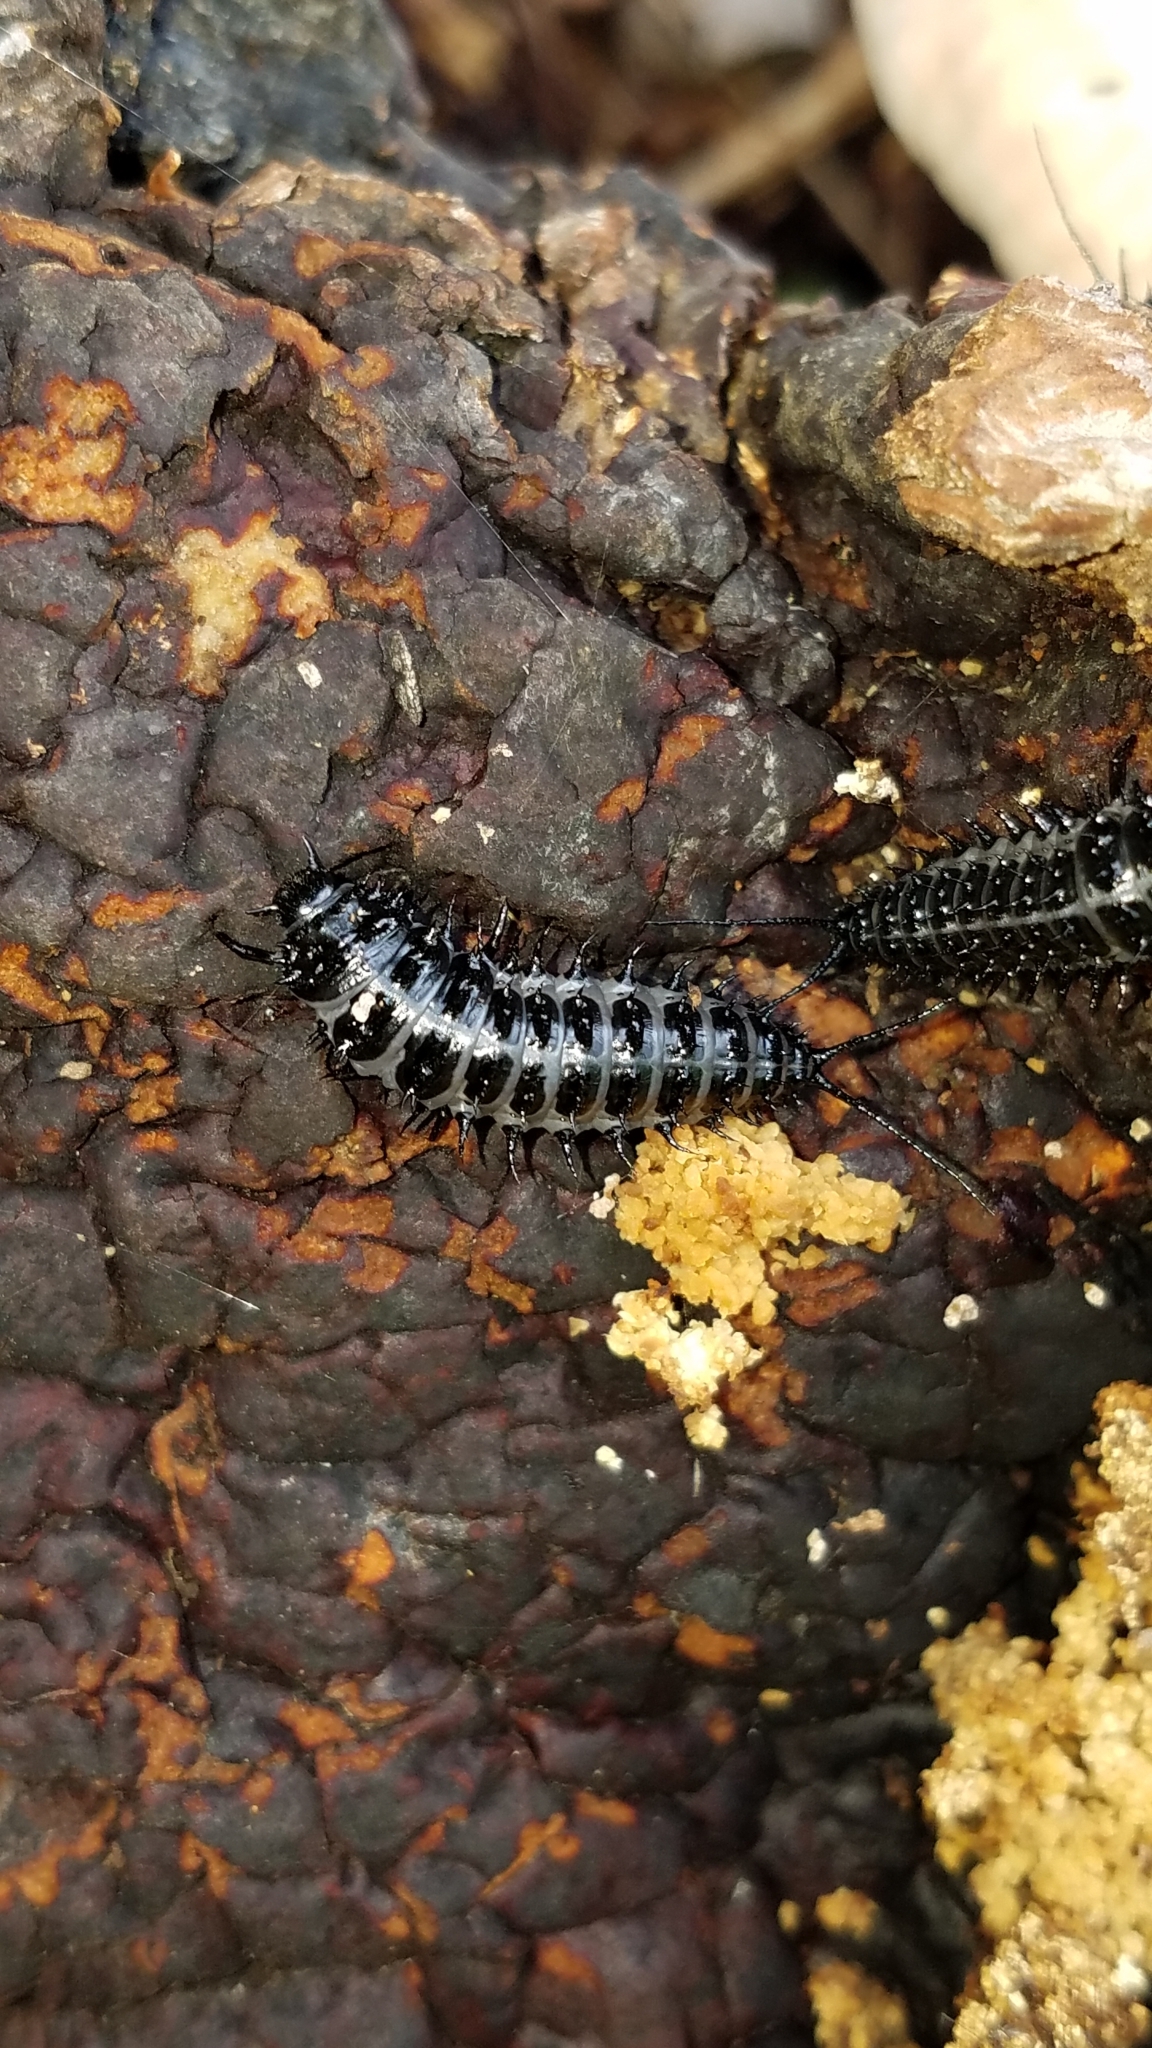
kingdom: Animalia
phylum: Arthropoda
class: Insecta
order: Coleoptera
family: Erotylidae
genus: Gibbifer
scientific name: Gibbifer californicus
